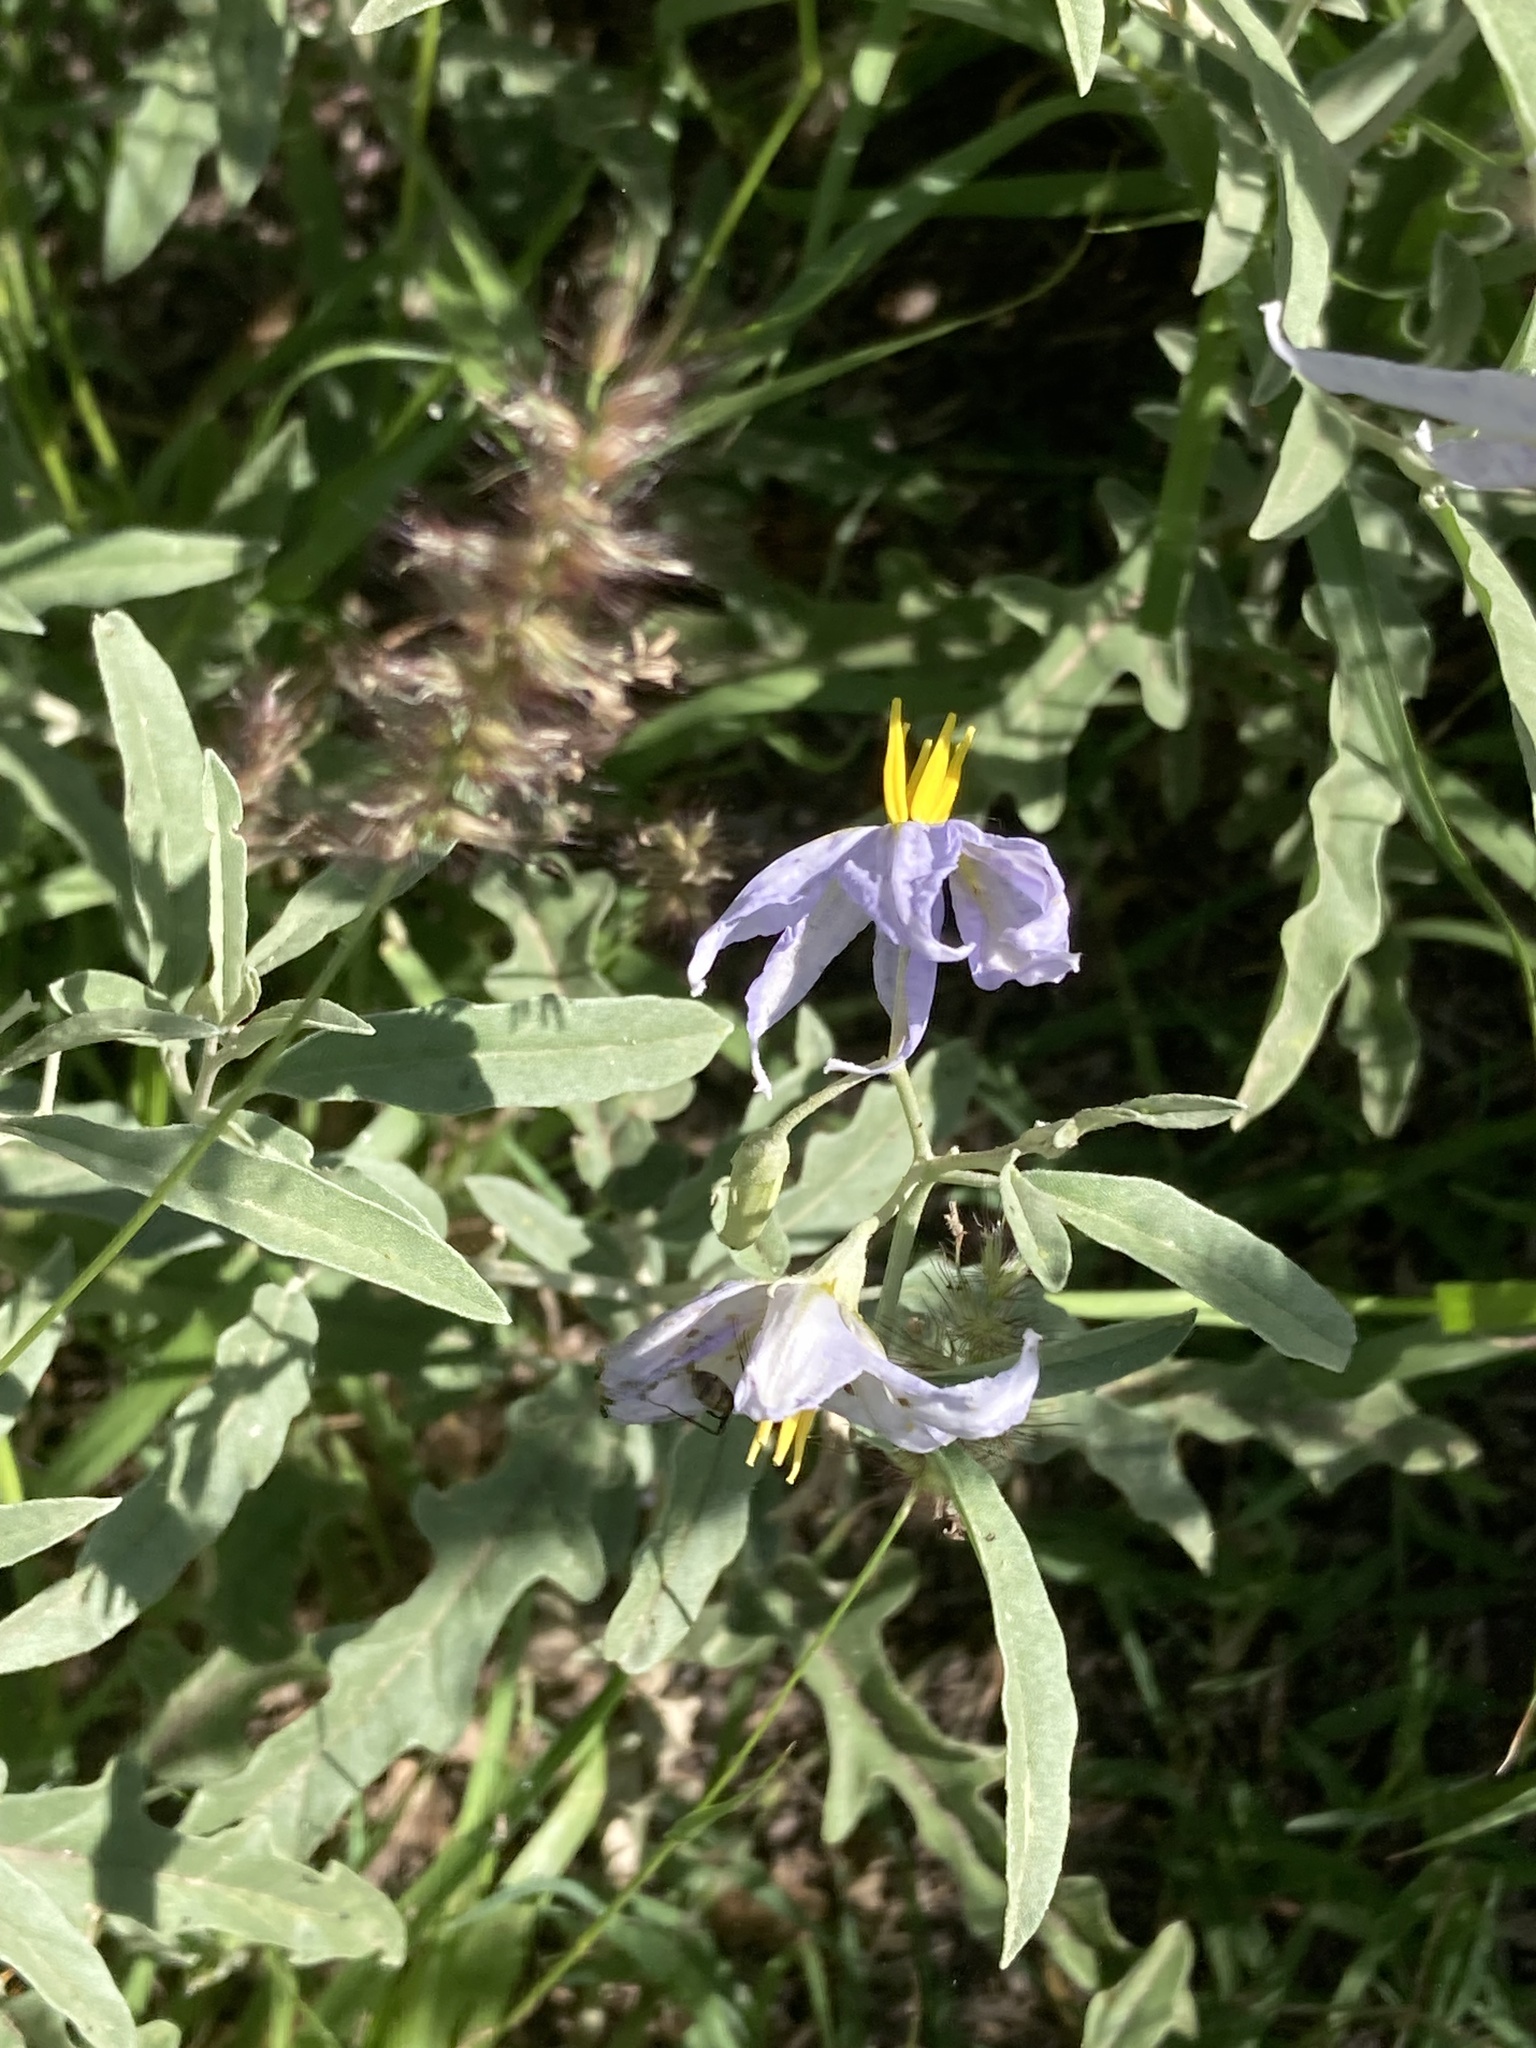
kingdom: Plantae
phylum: Tracheophyta
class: Magnoliopsida
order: Solanales
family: Solanaceae
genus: Solanum
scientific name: Solanum elaeagnifolium
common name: Silverleaf nightshade
